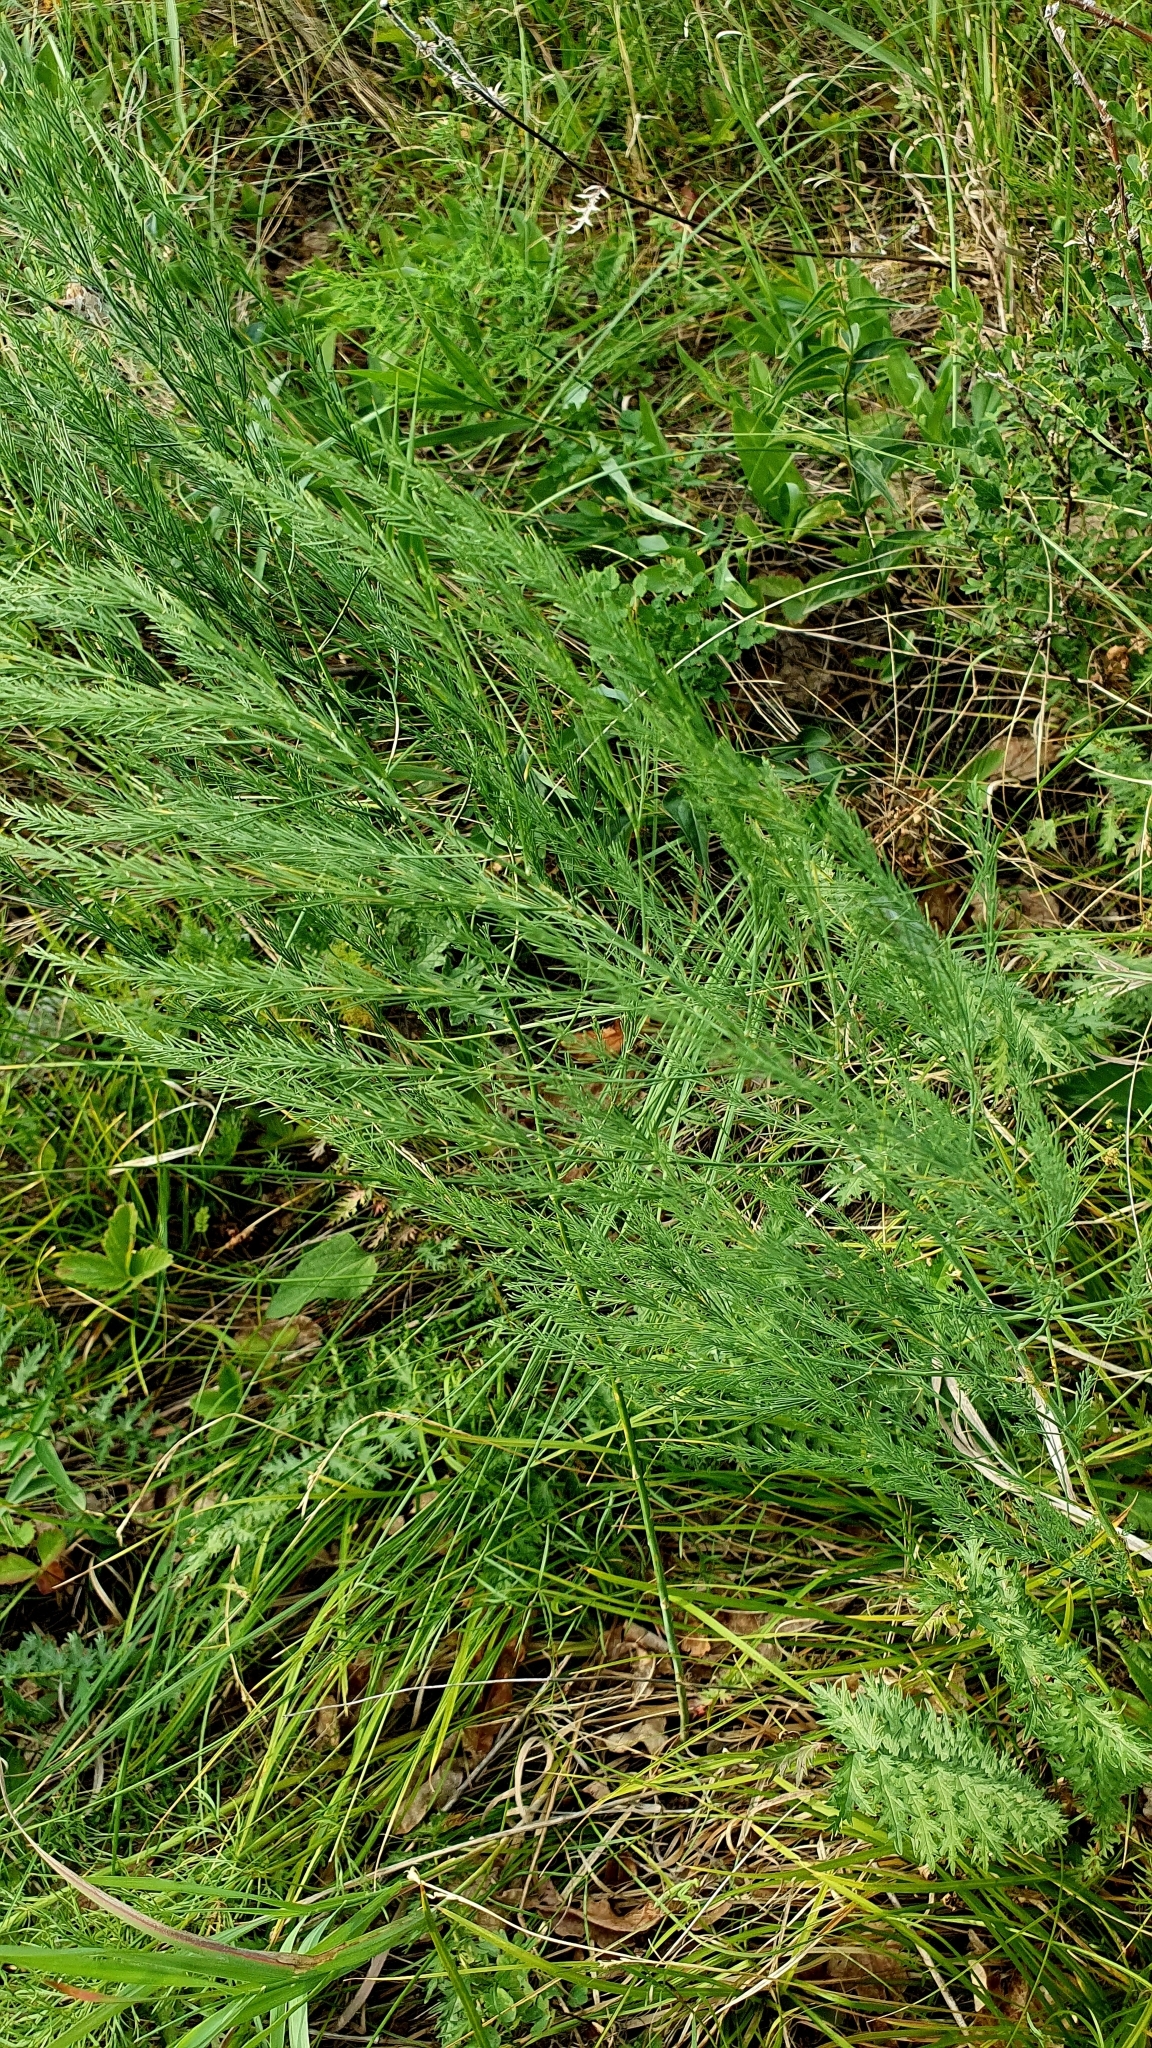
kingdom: Plantae
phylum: Tracheophyta
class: Liliopsida
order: Asparagales
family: Asparagaceae
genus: Asparagus
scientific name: Asparagus officinalis
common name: Garden asparagus
